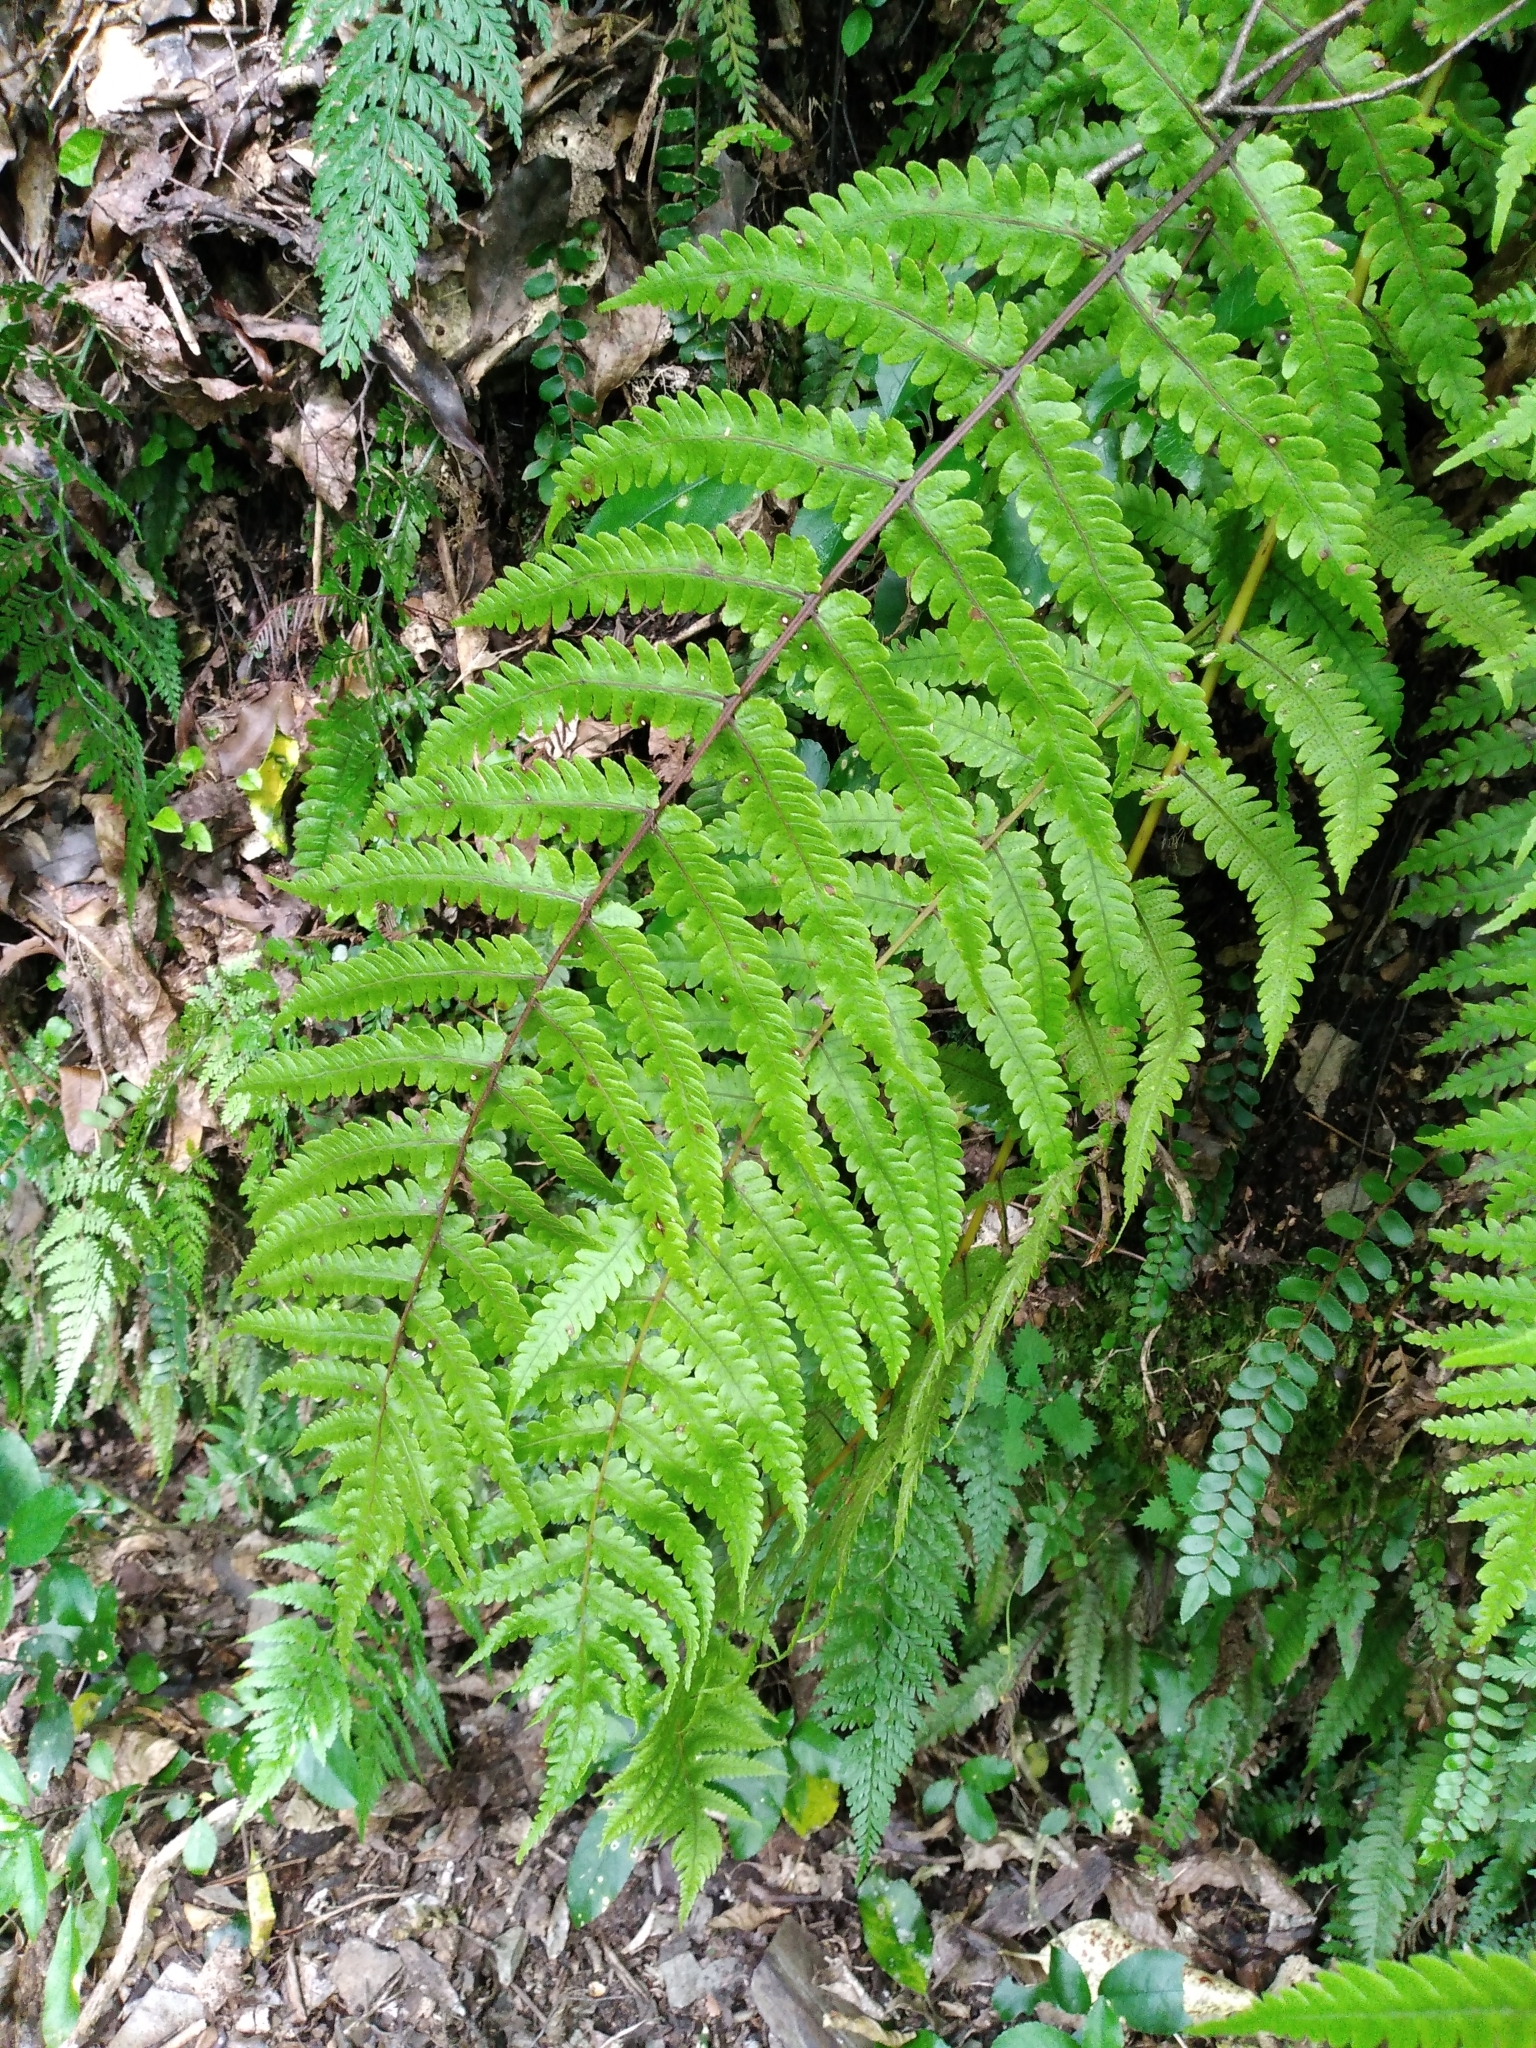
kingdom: Plantae
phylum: Tracheophyta
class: Polypodiopsida
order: Polypodiales
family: Thelypteridaceae
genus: Pakau
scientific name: Pakau pennigera
